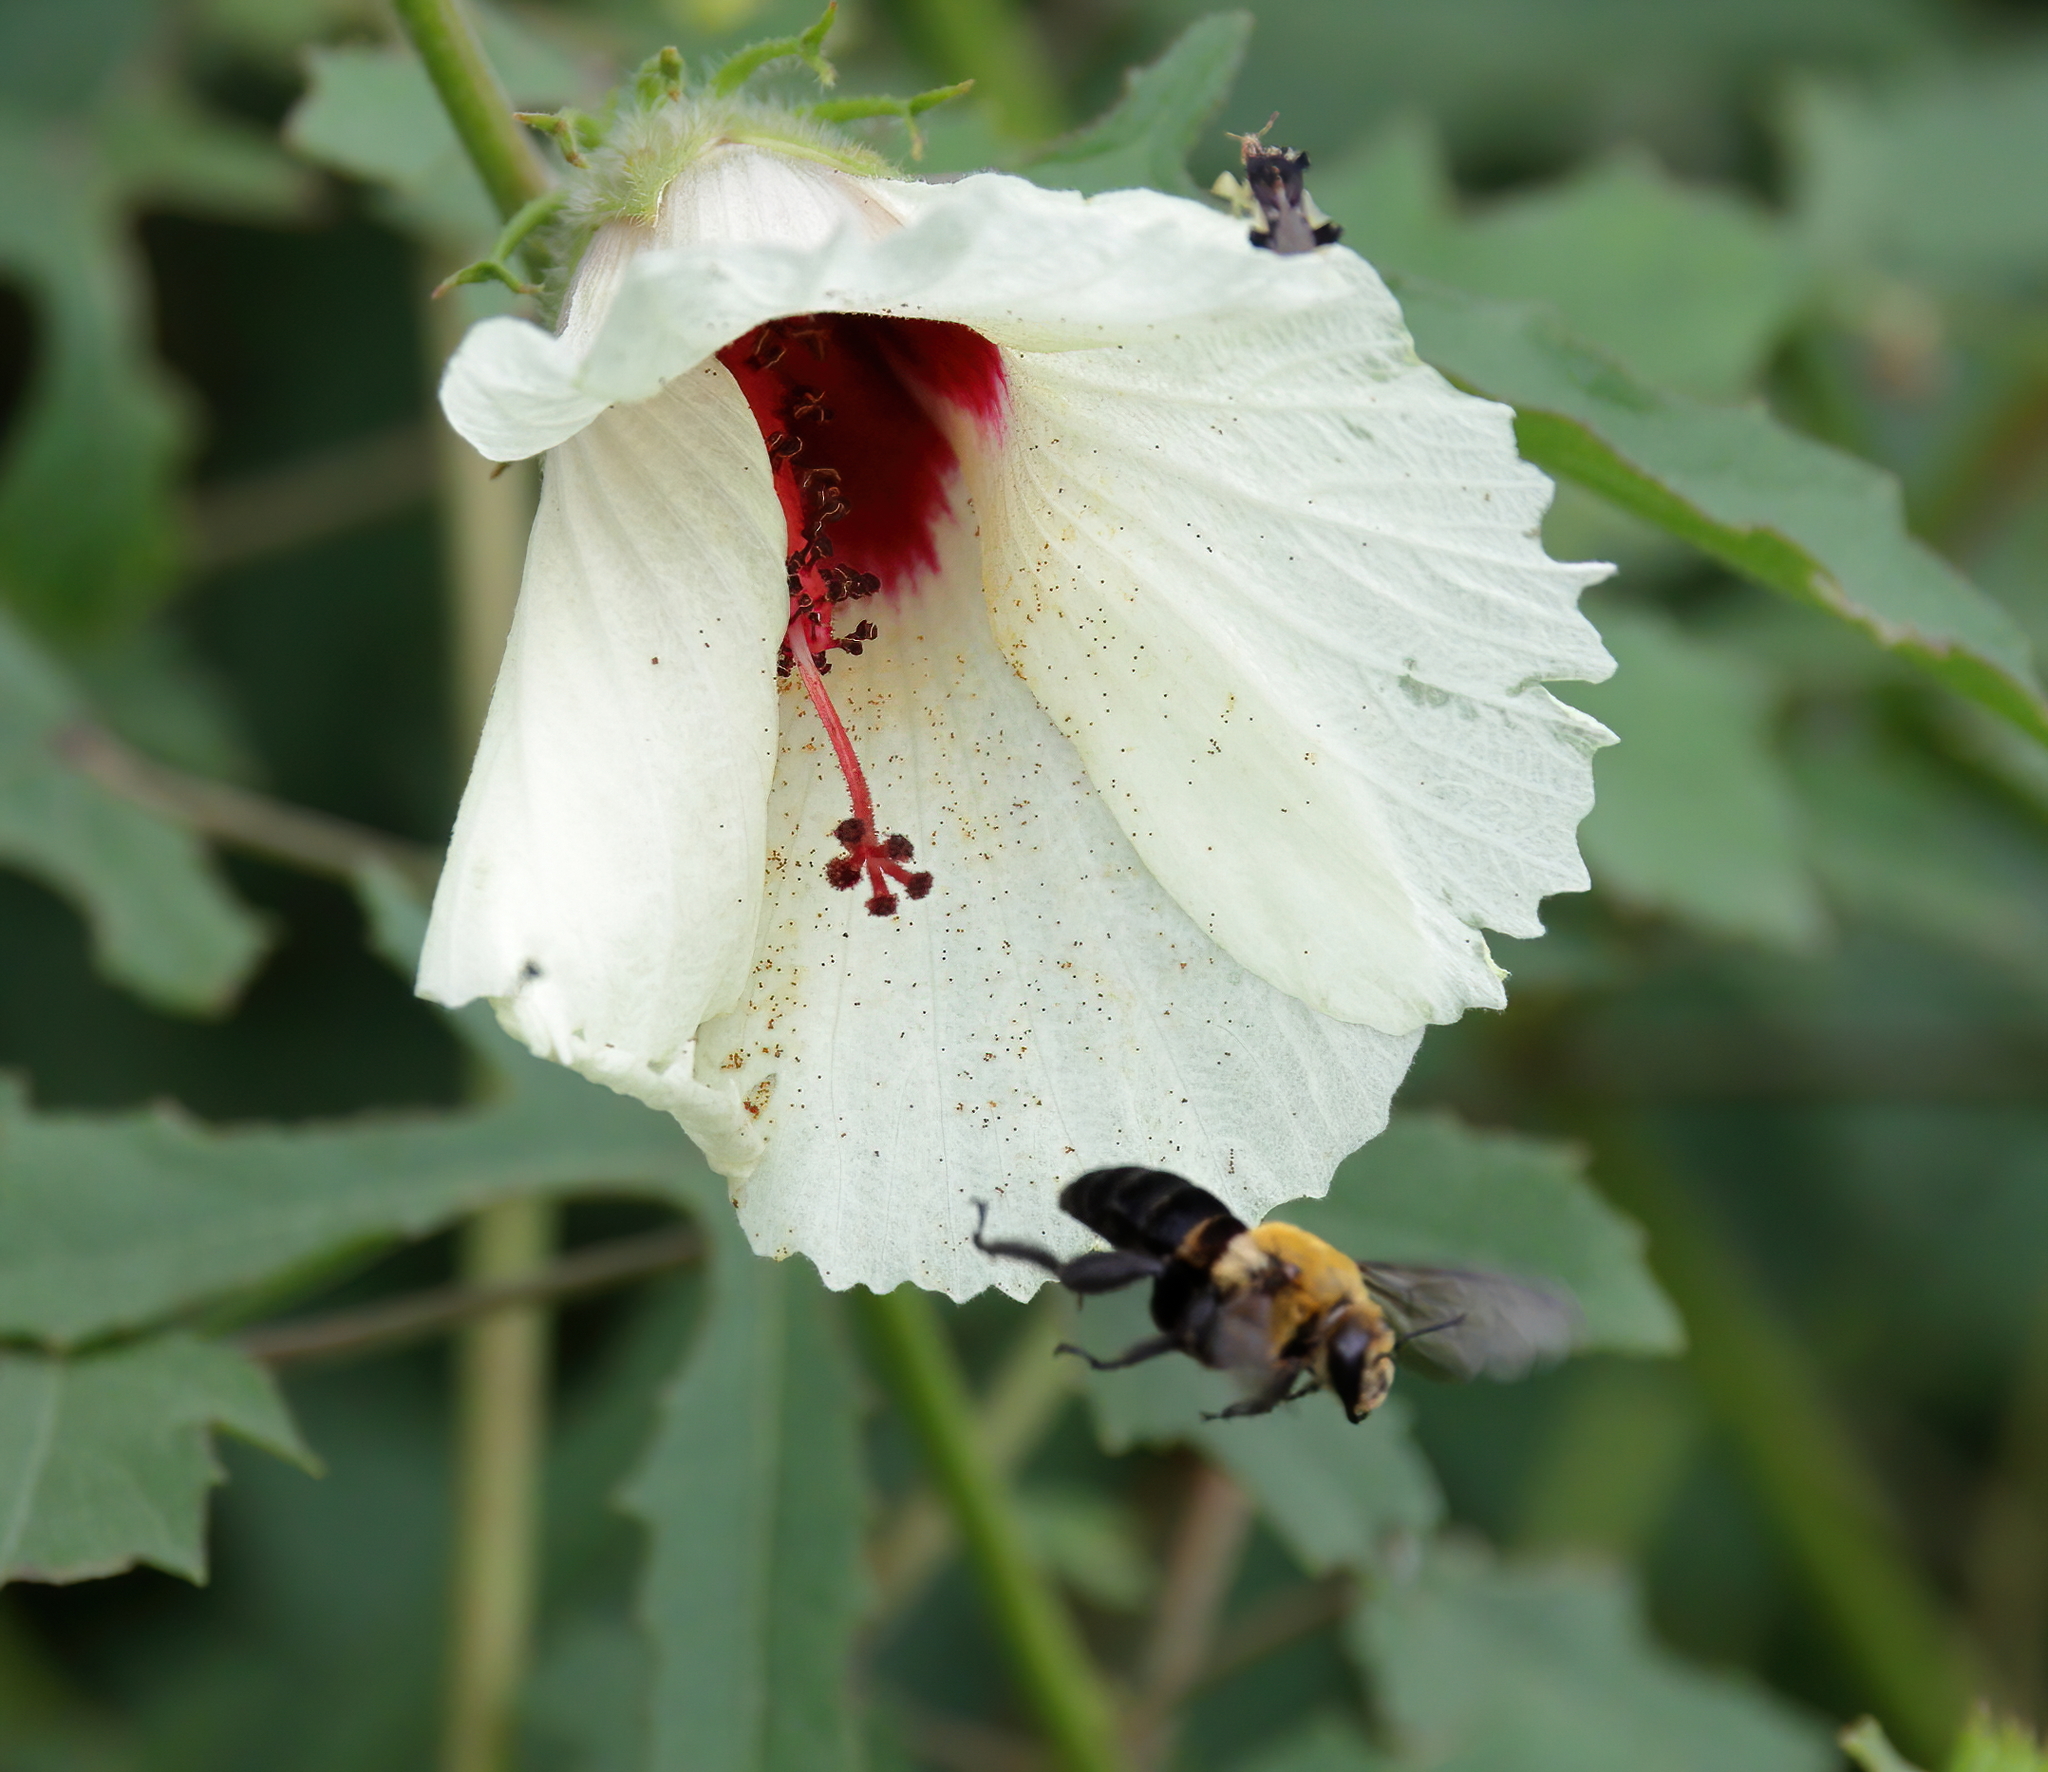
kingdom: Animalia
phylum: Arthropoda
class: Insecta
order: Hymenoptera
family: Apidae
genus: Ptilothrix
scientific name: Ptilothrix bombiformis
